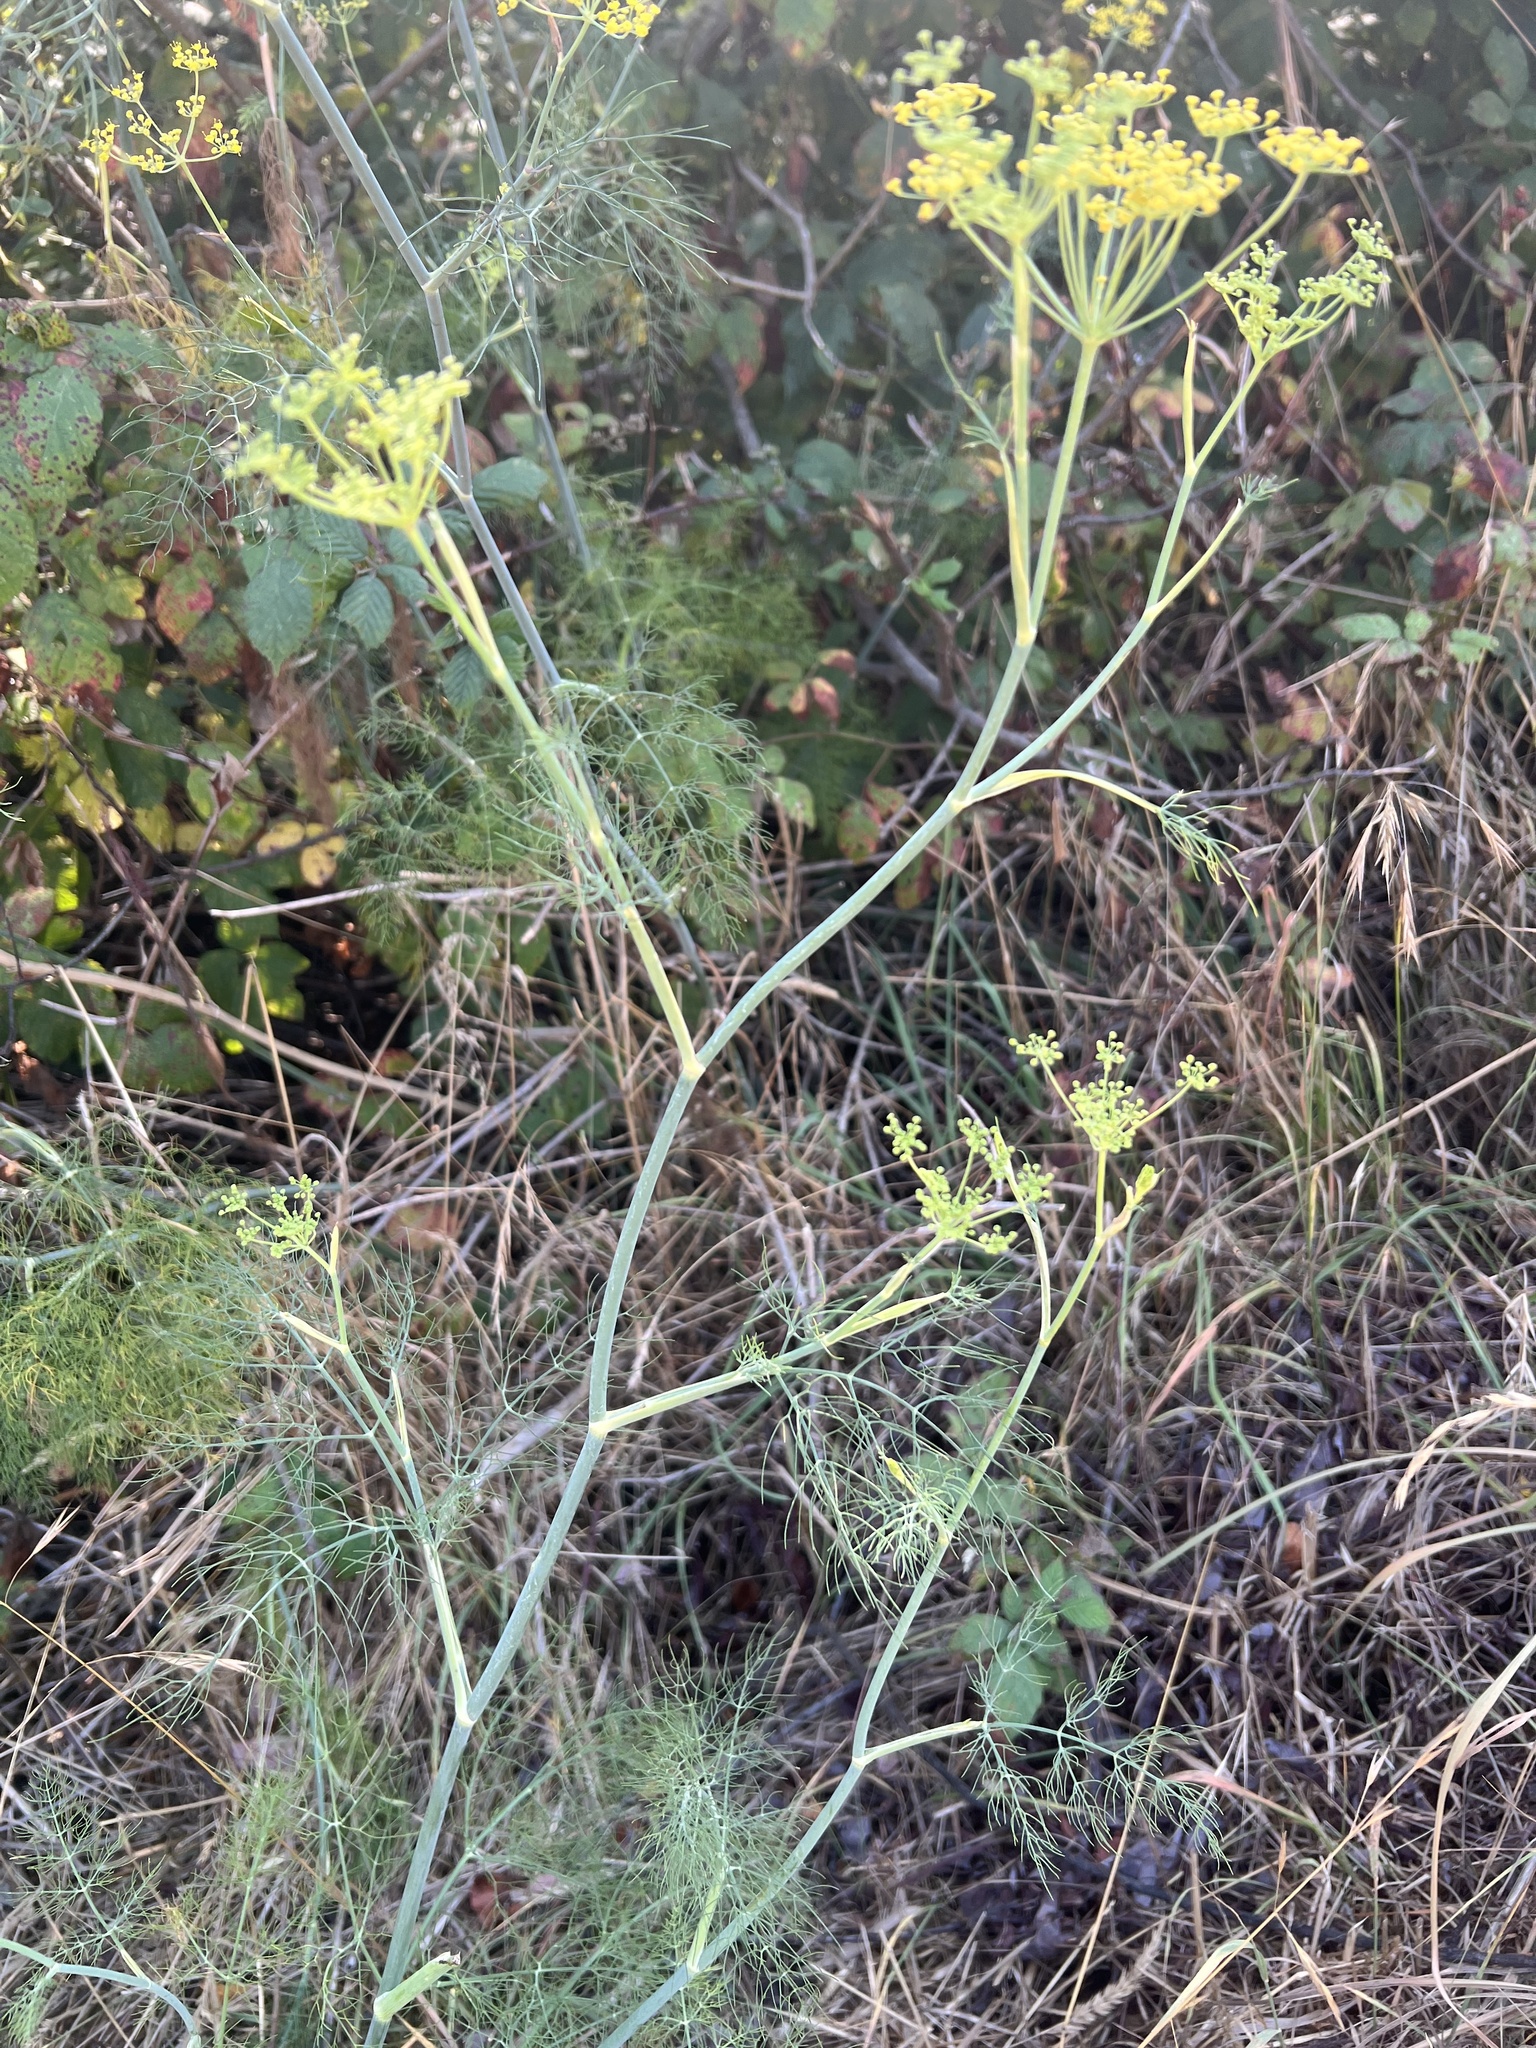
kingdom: Plantae
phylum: Tracheophyta
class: Magnoliopsida
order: Apiales
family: Apiaceae
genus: Foeniculum
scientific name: Foeniculum vulgare
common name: Fennel
